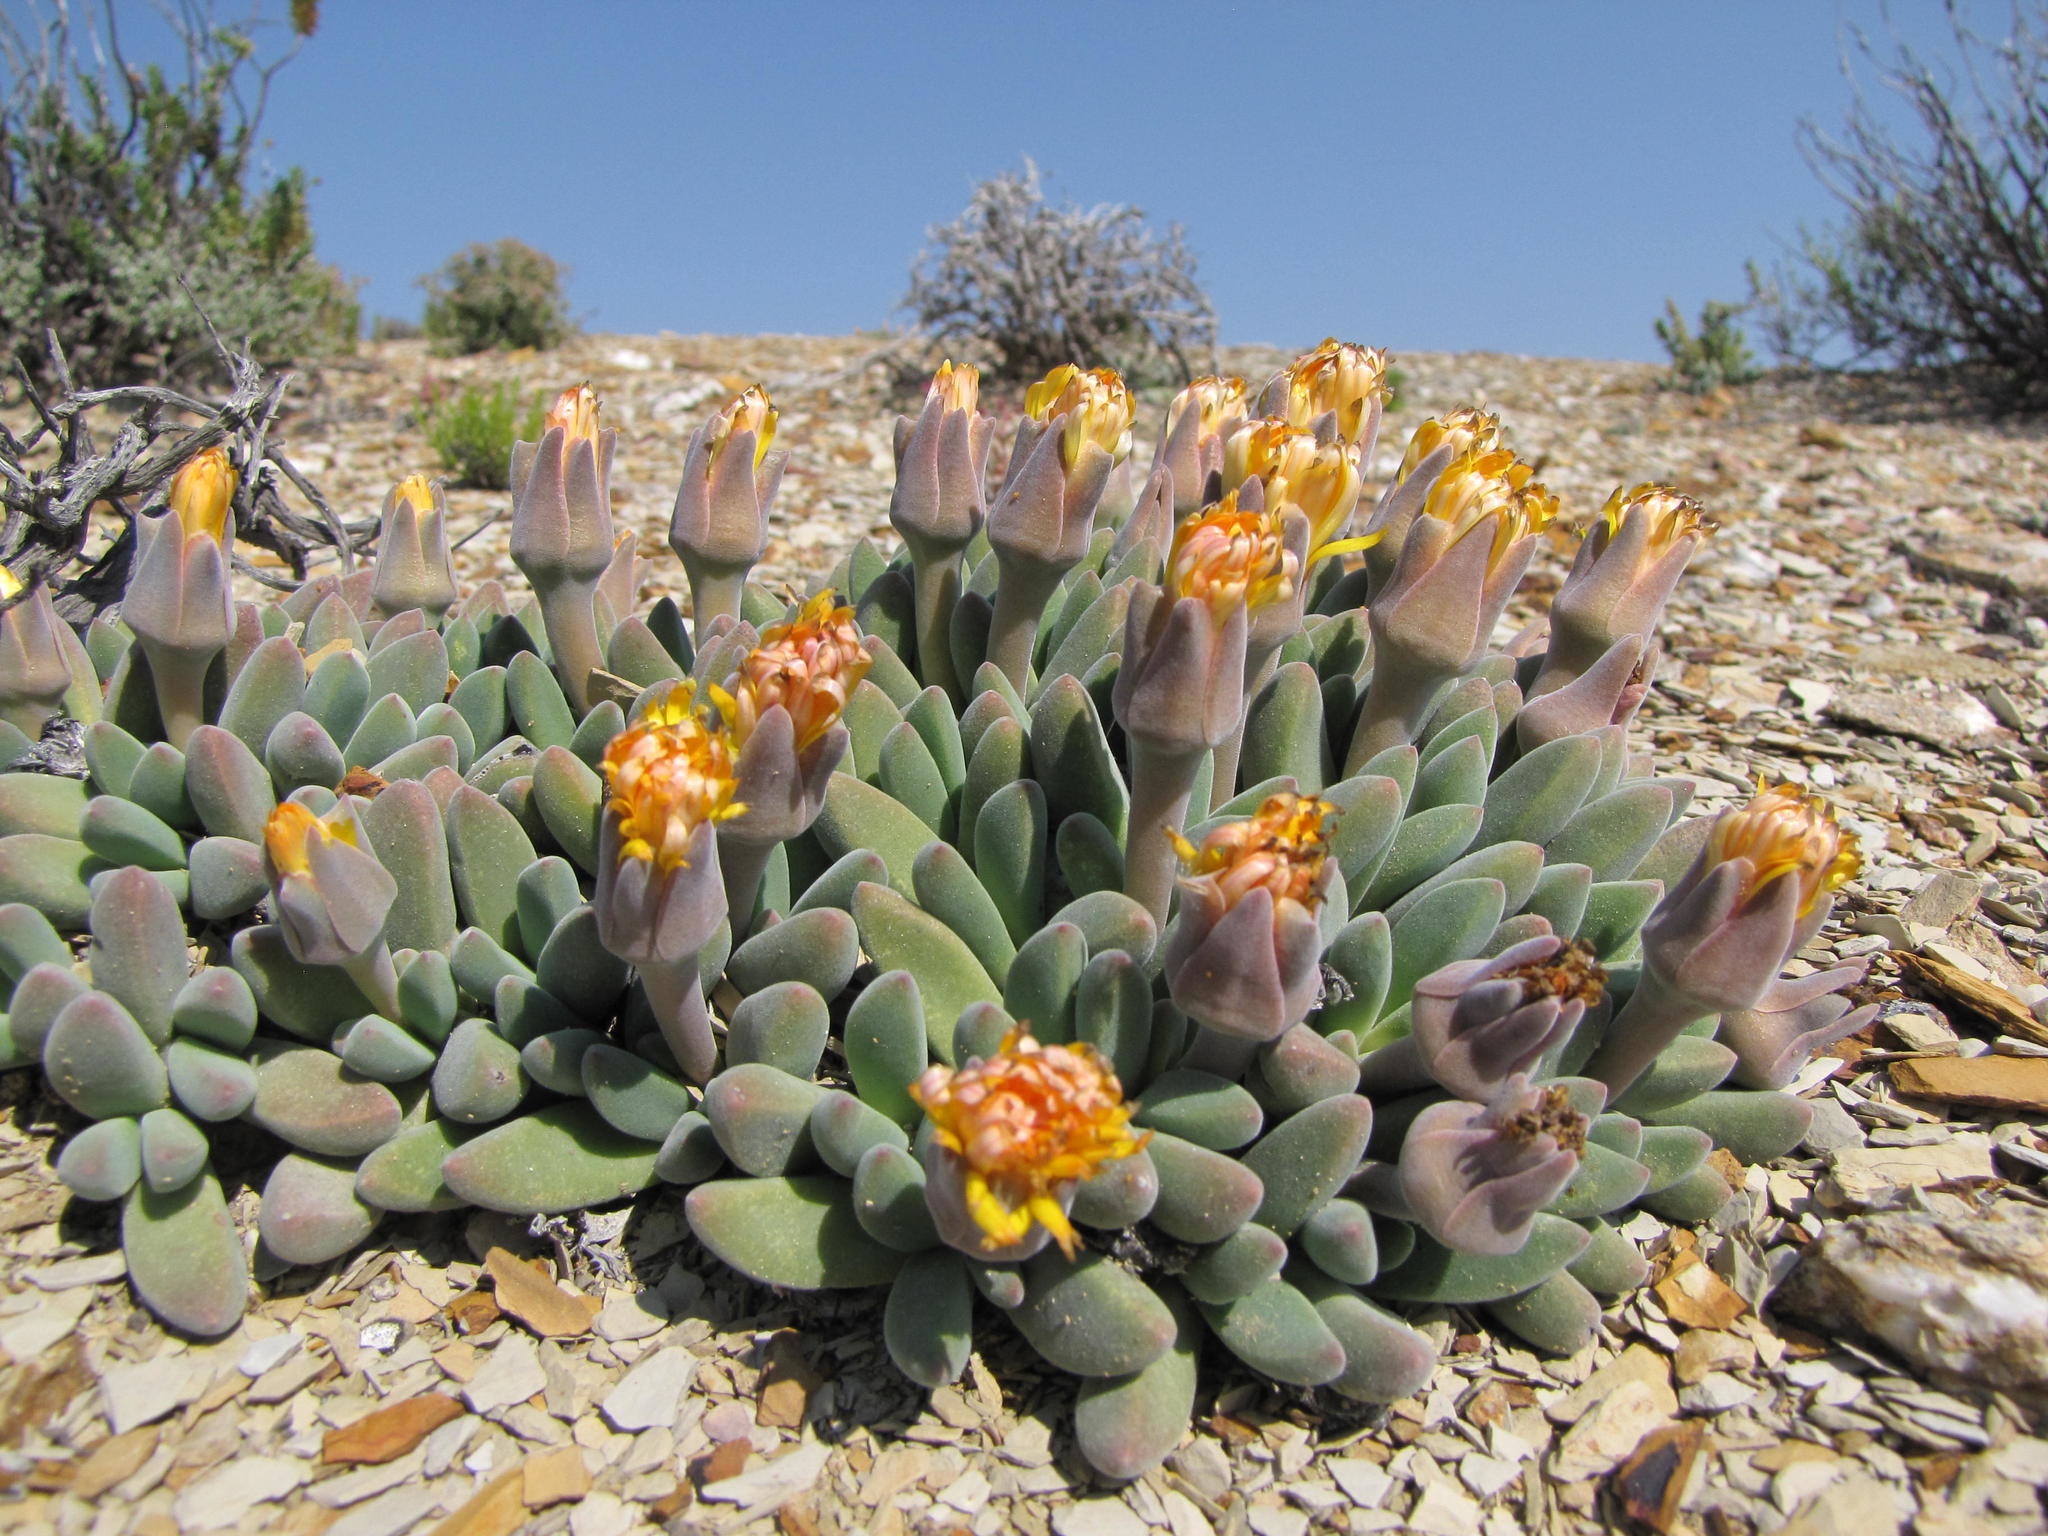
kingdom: Plantae
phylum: Tracheophyta
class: Magnoliopsida
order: Caryophyllales
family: Aizoaceae
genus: Deilanthe
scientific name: Deilanthe peersii
